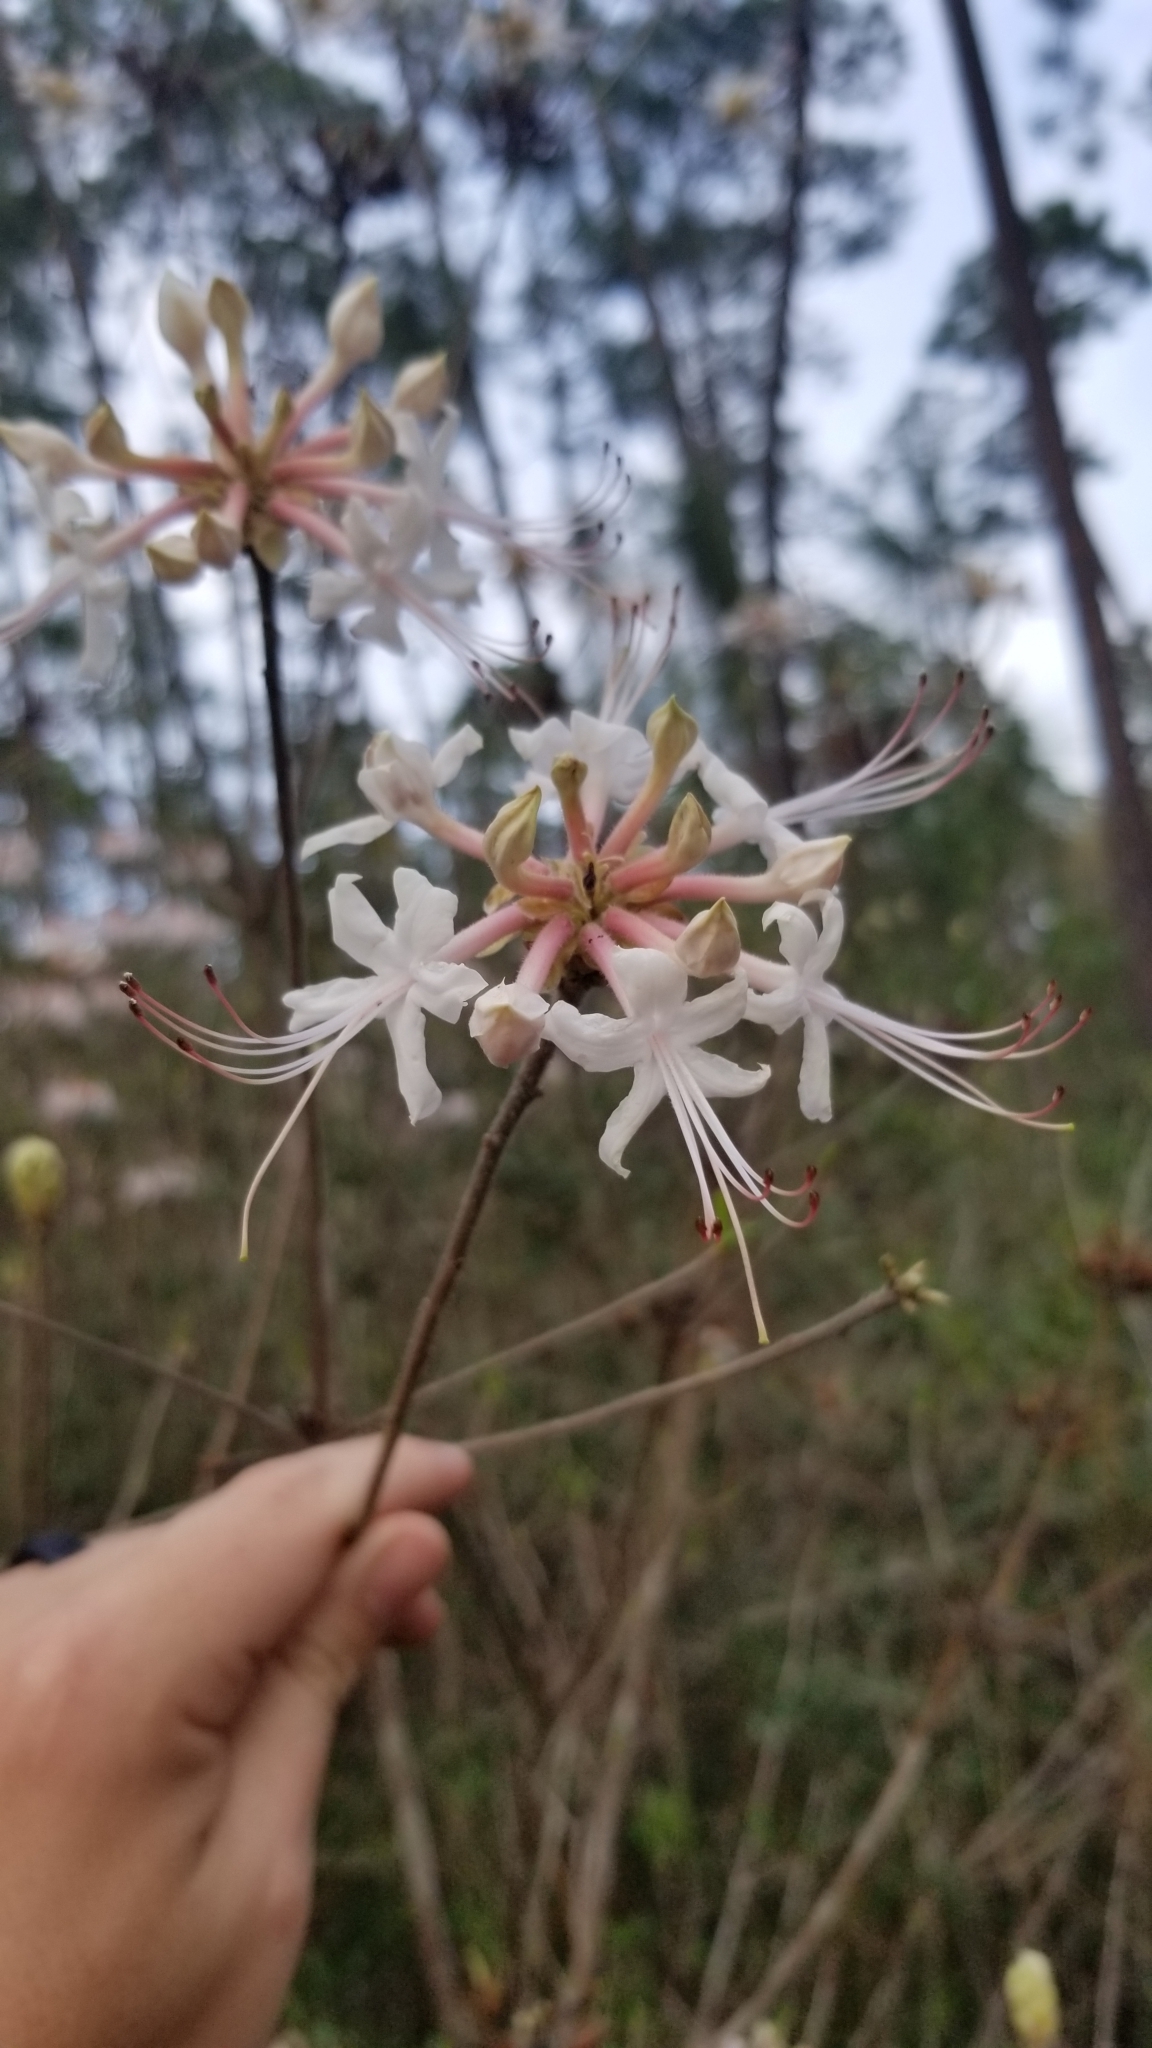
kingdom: Plantae
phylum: Tracheophyta
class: Magnoliopsida
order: Ericales
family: Ericaceae
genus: Rhododendron
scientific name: Rhododendron canescens
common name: Mountain azalea
